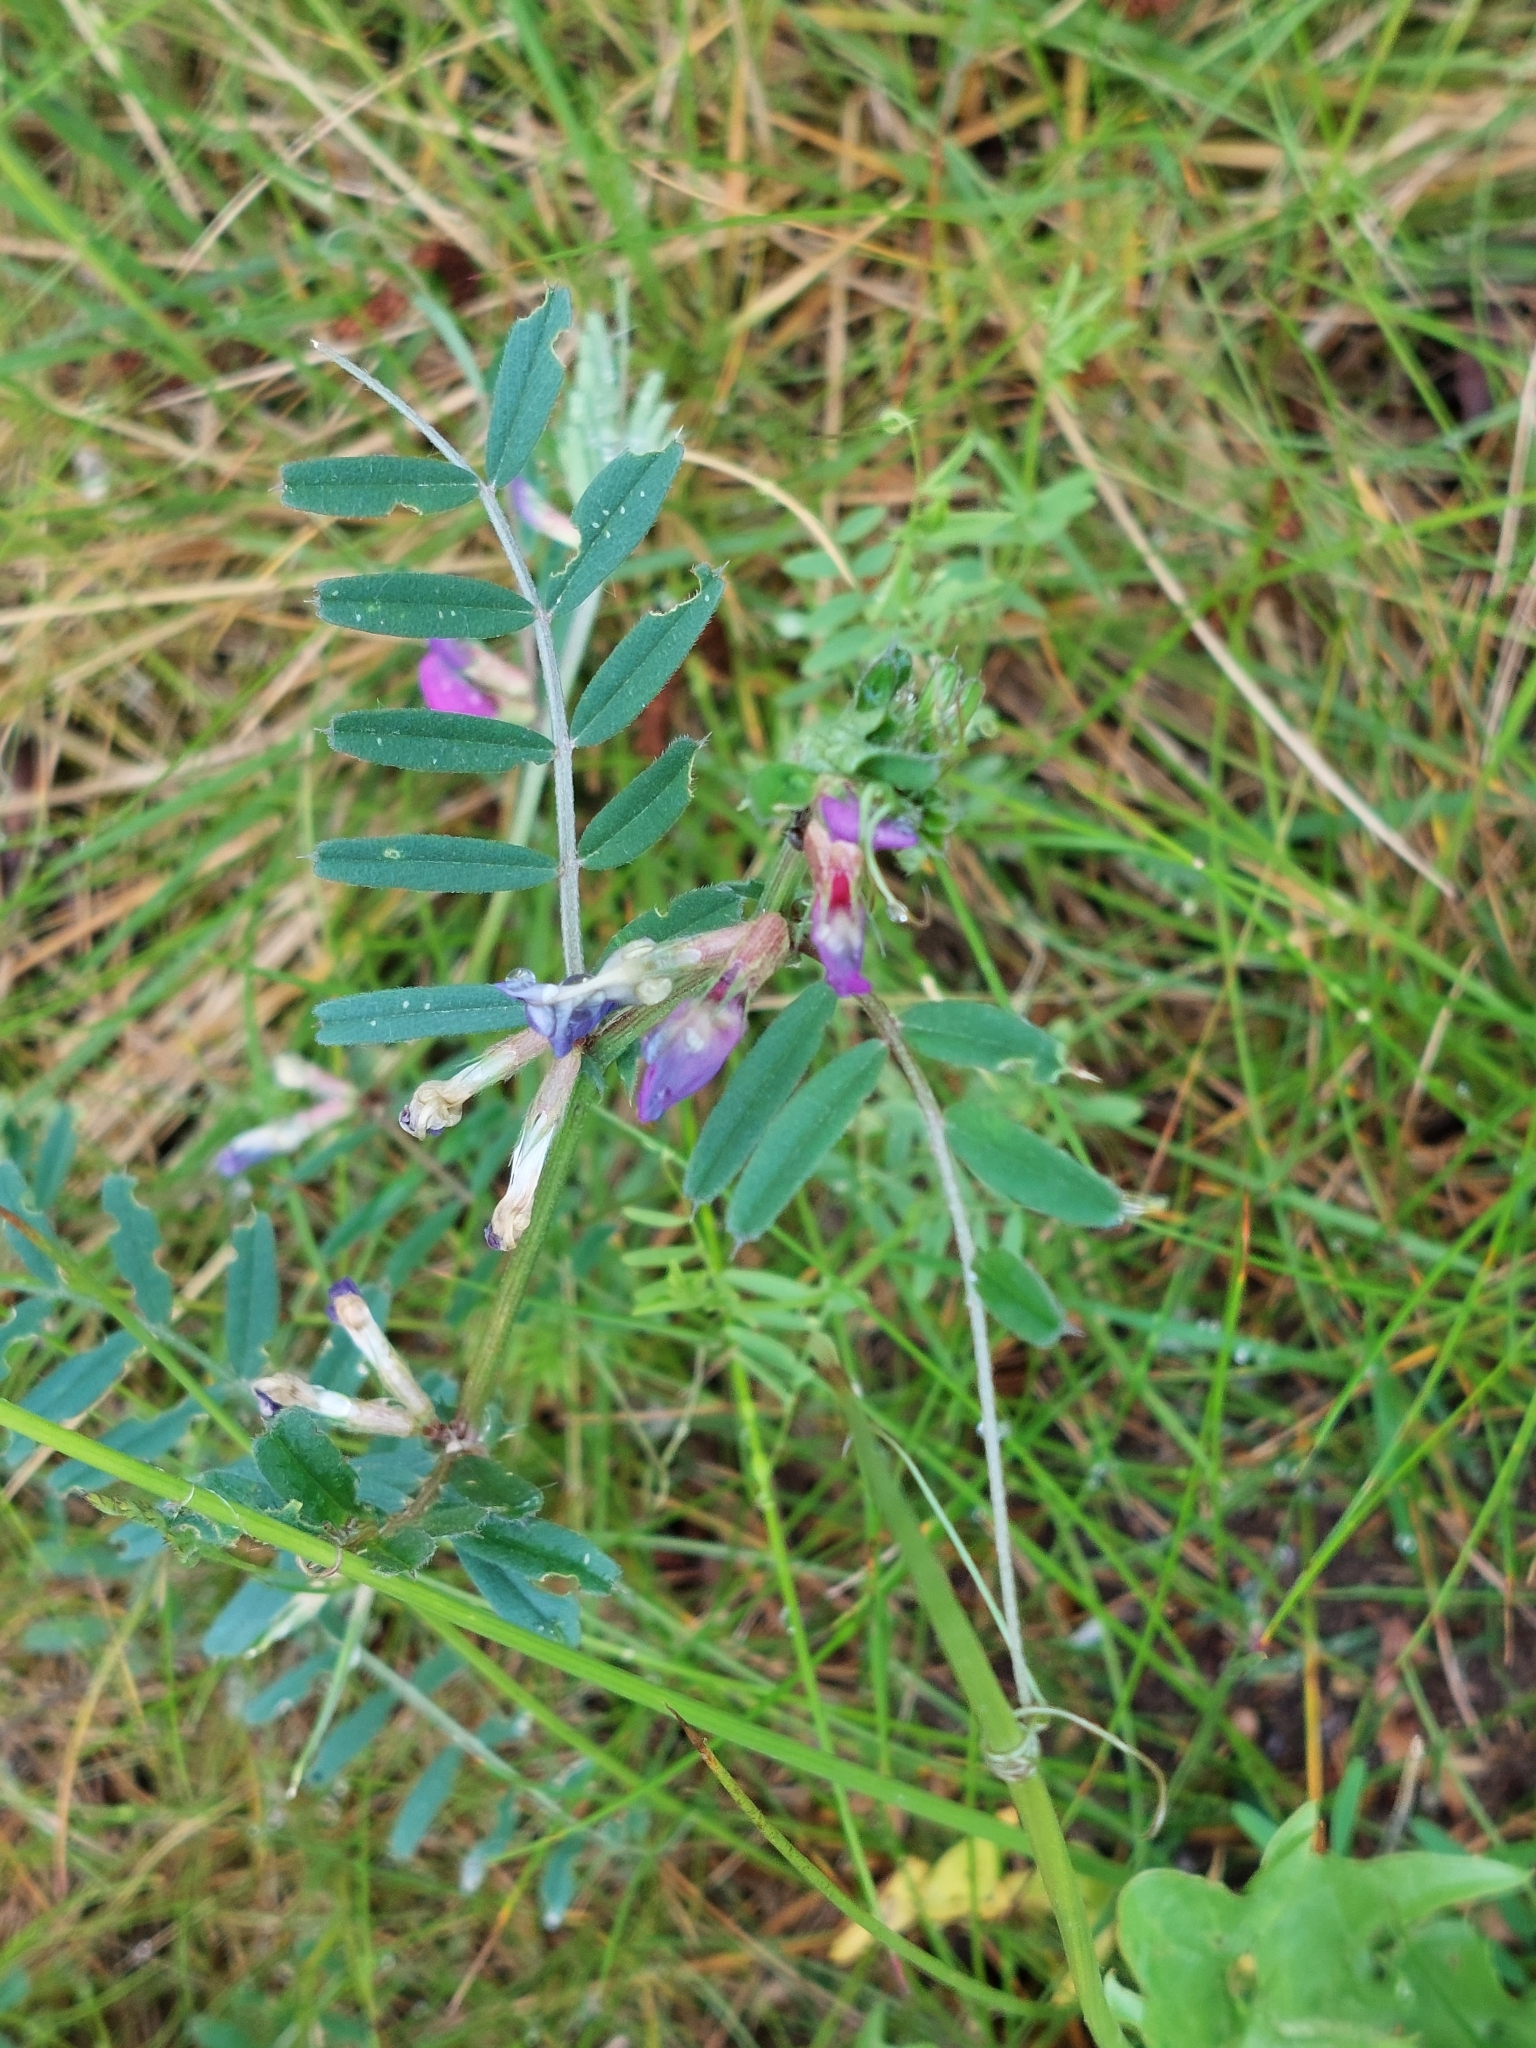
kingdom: Plantae
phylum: Tracheophyta
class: Magnoliopsida
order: Fabales
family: Fabaceae
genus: Vicia
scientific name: Vicia sativa
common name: Garden vetch
